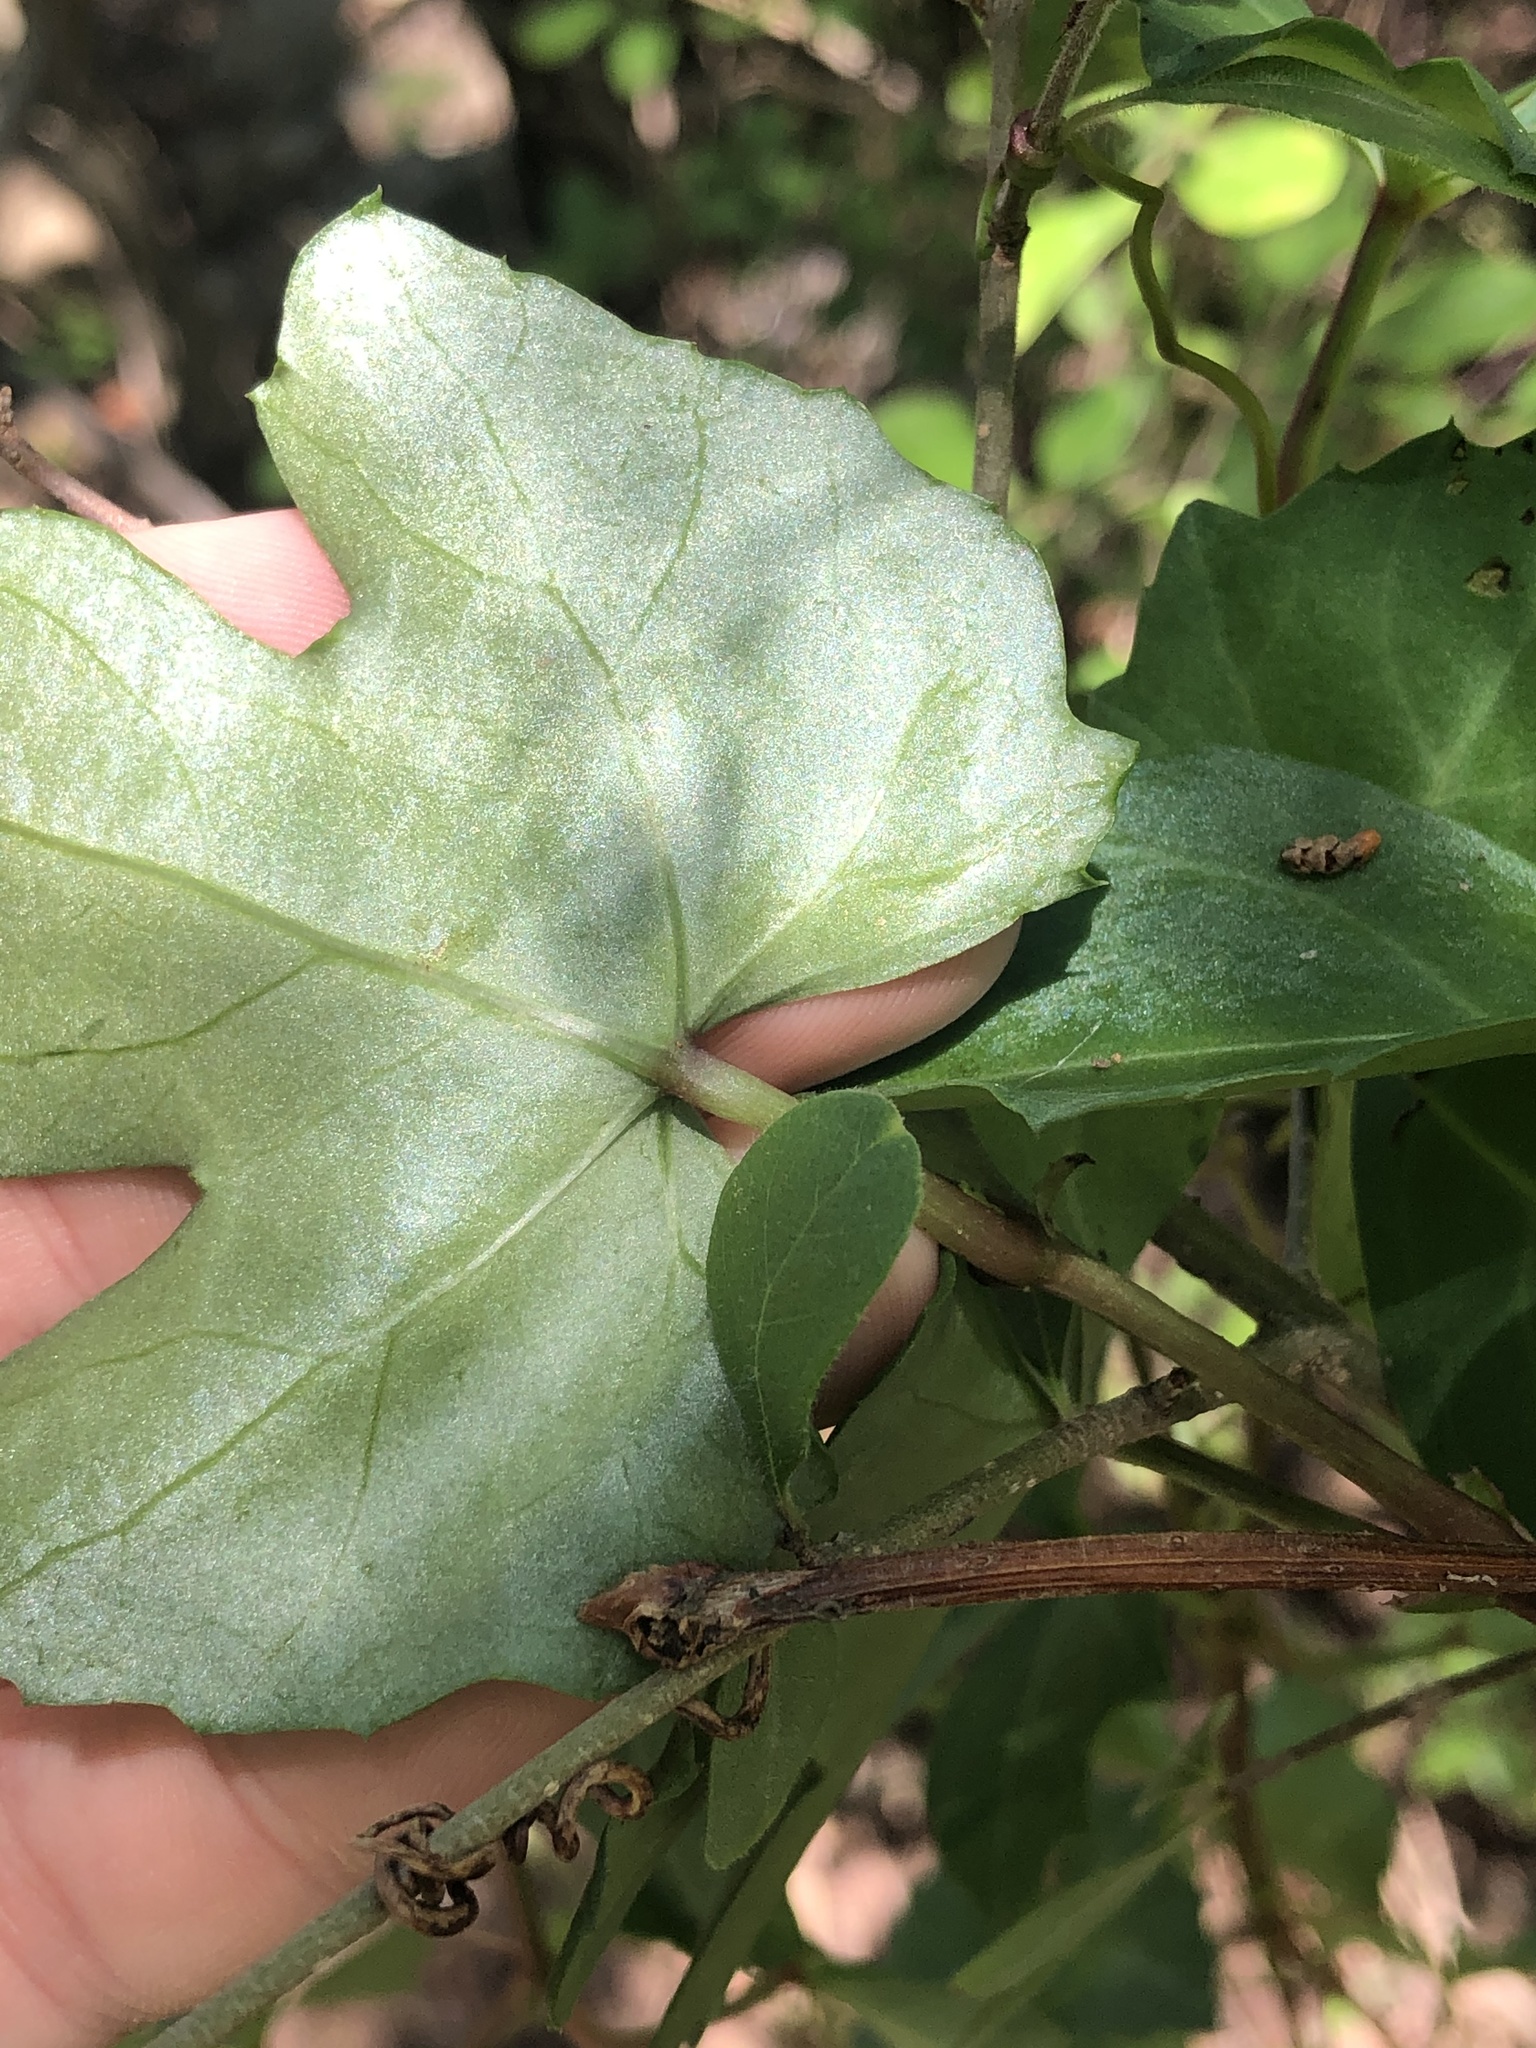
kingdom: Plantae
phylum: Tracheophyta
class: Magnoliopsida
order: Vitales
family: Vitaceae
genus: Cissus
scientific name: Cissus trifoliata
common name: Vine-sorrel
